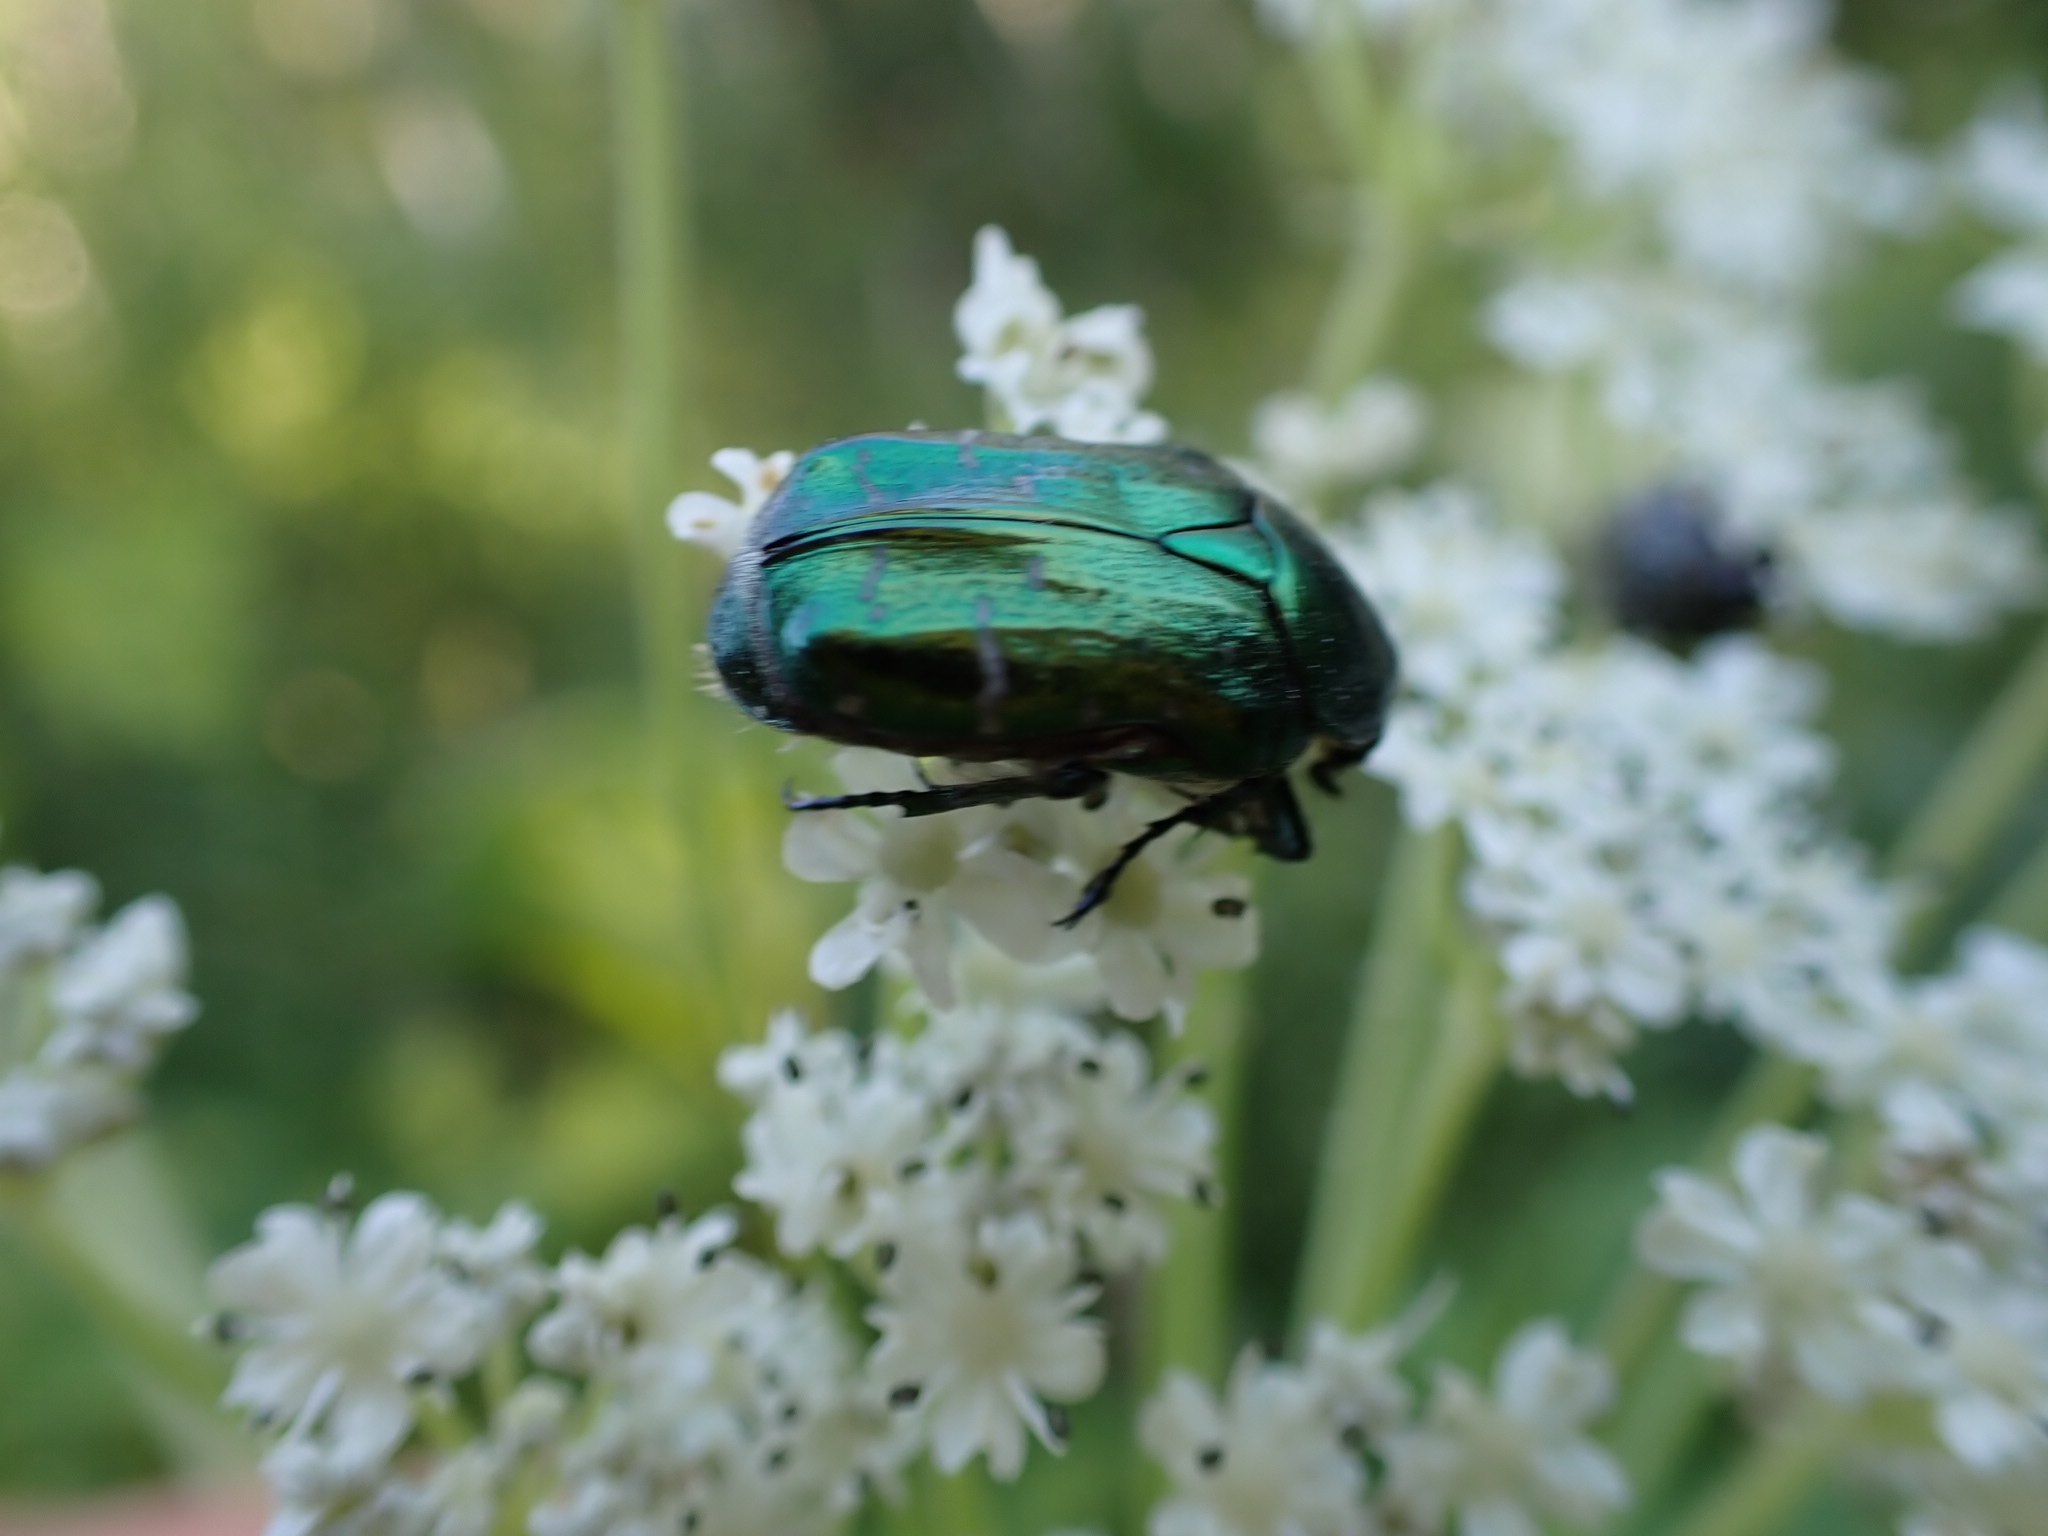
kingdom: Animalia
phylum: Arthropoda
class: Insecta
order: Coleoptera
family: Scarabaeidae
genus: Cetonia
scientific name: Cetonia aurata
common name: Rose chafer
